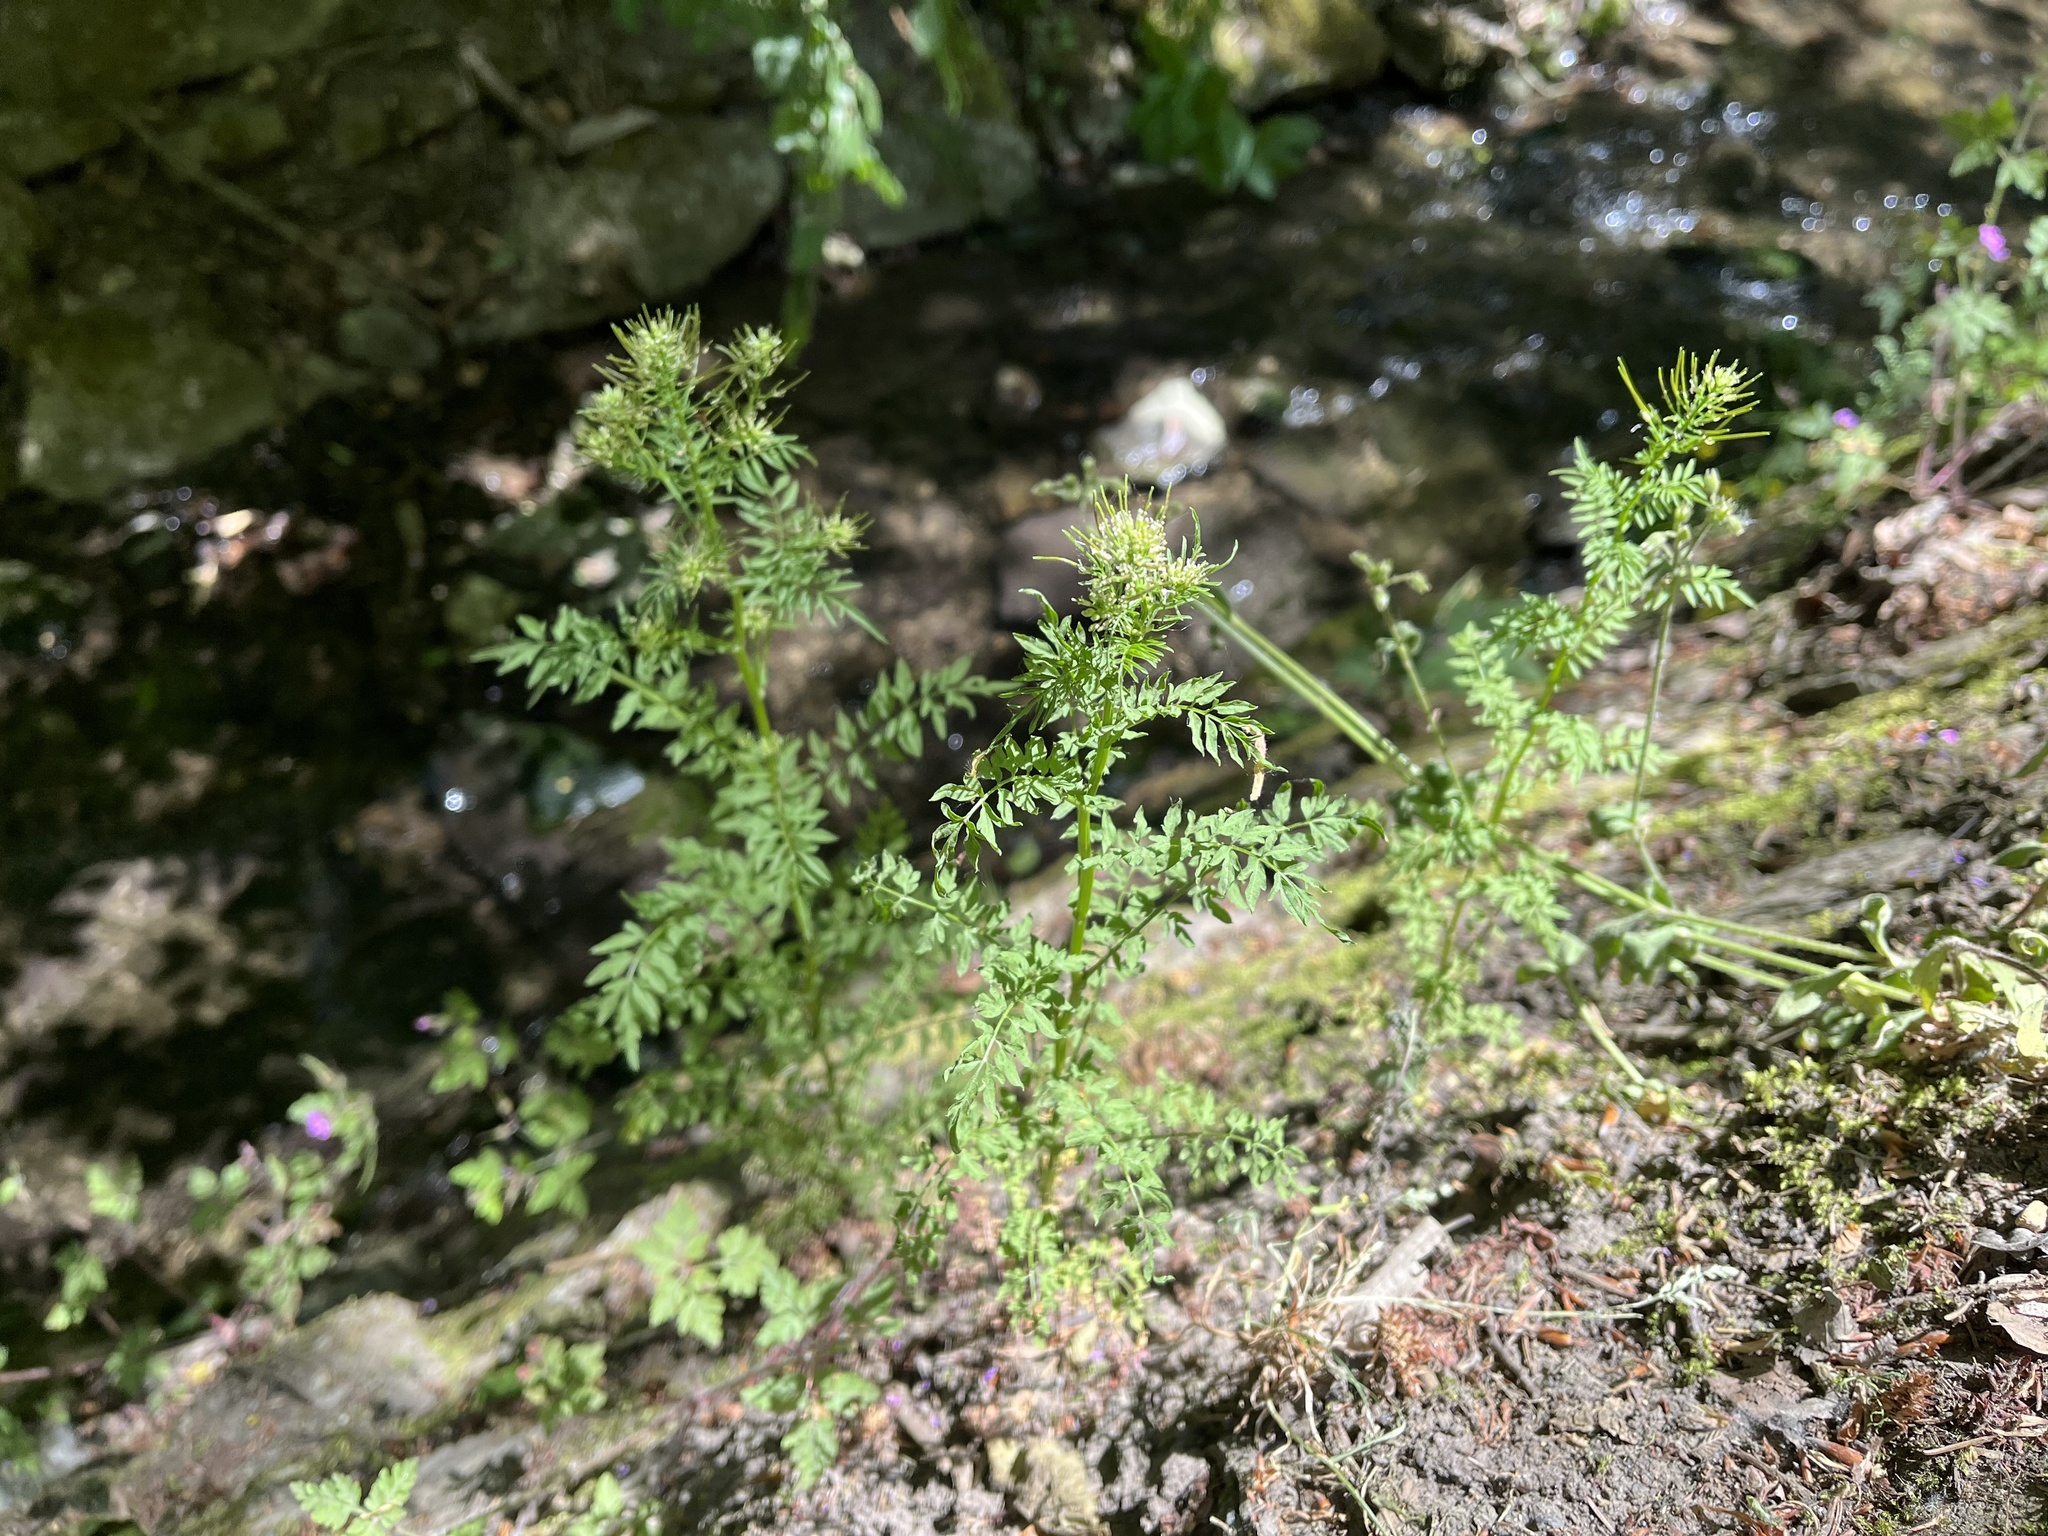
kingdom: Plantae
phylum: Tracheophyta
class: Magnoliopsida
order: Brassicales
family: Brassicaceae
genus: Cardamine
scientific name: Cardamine impatiens
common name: Narrow-leaved bitter-cress
